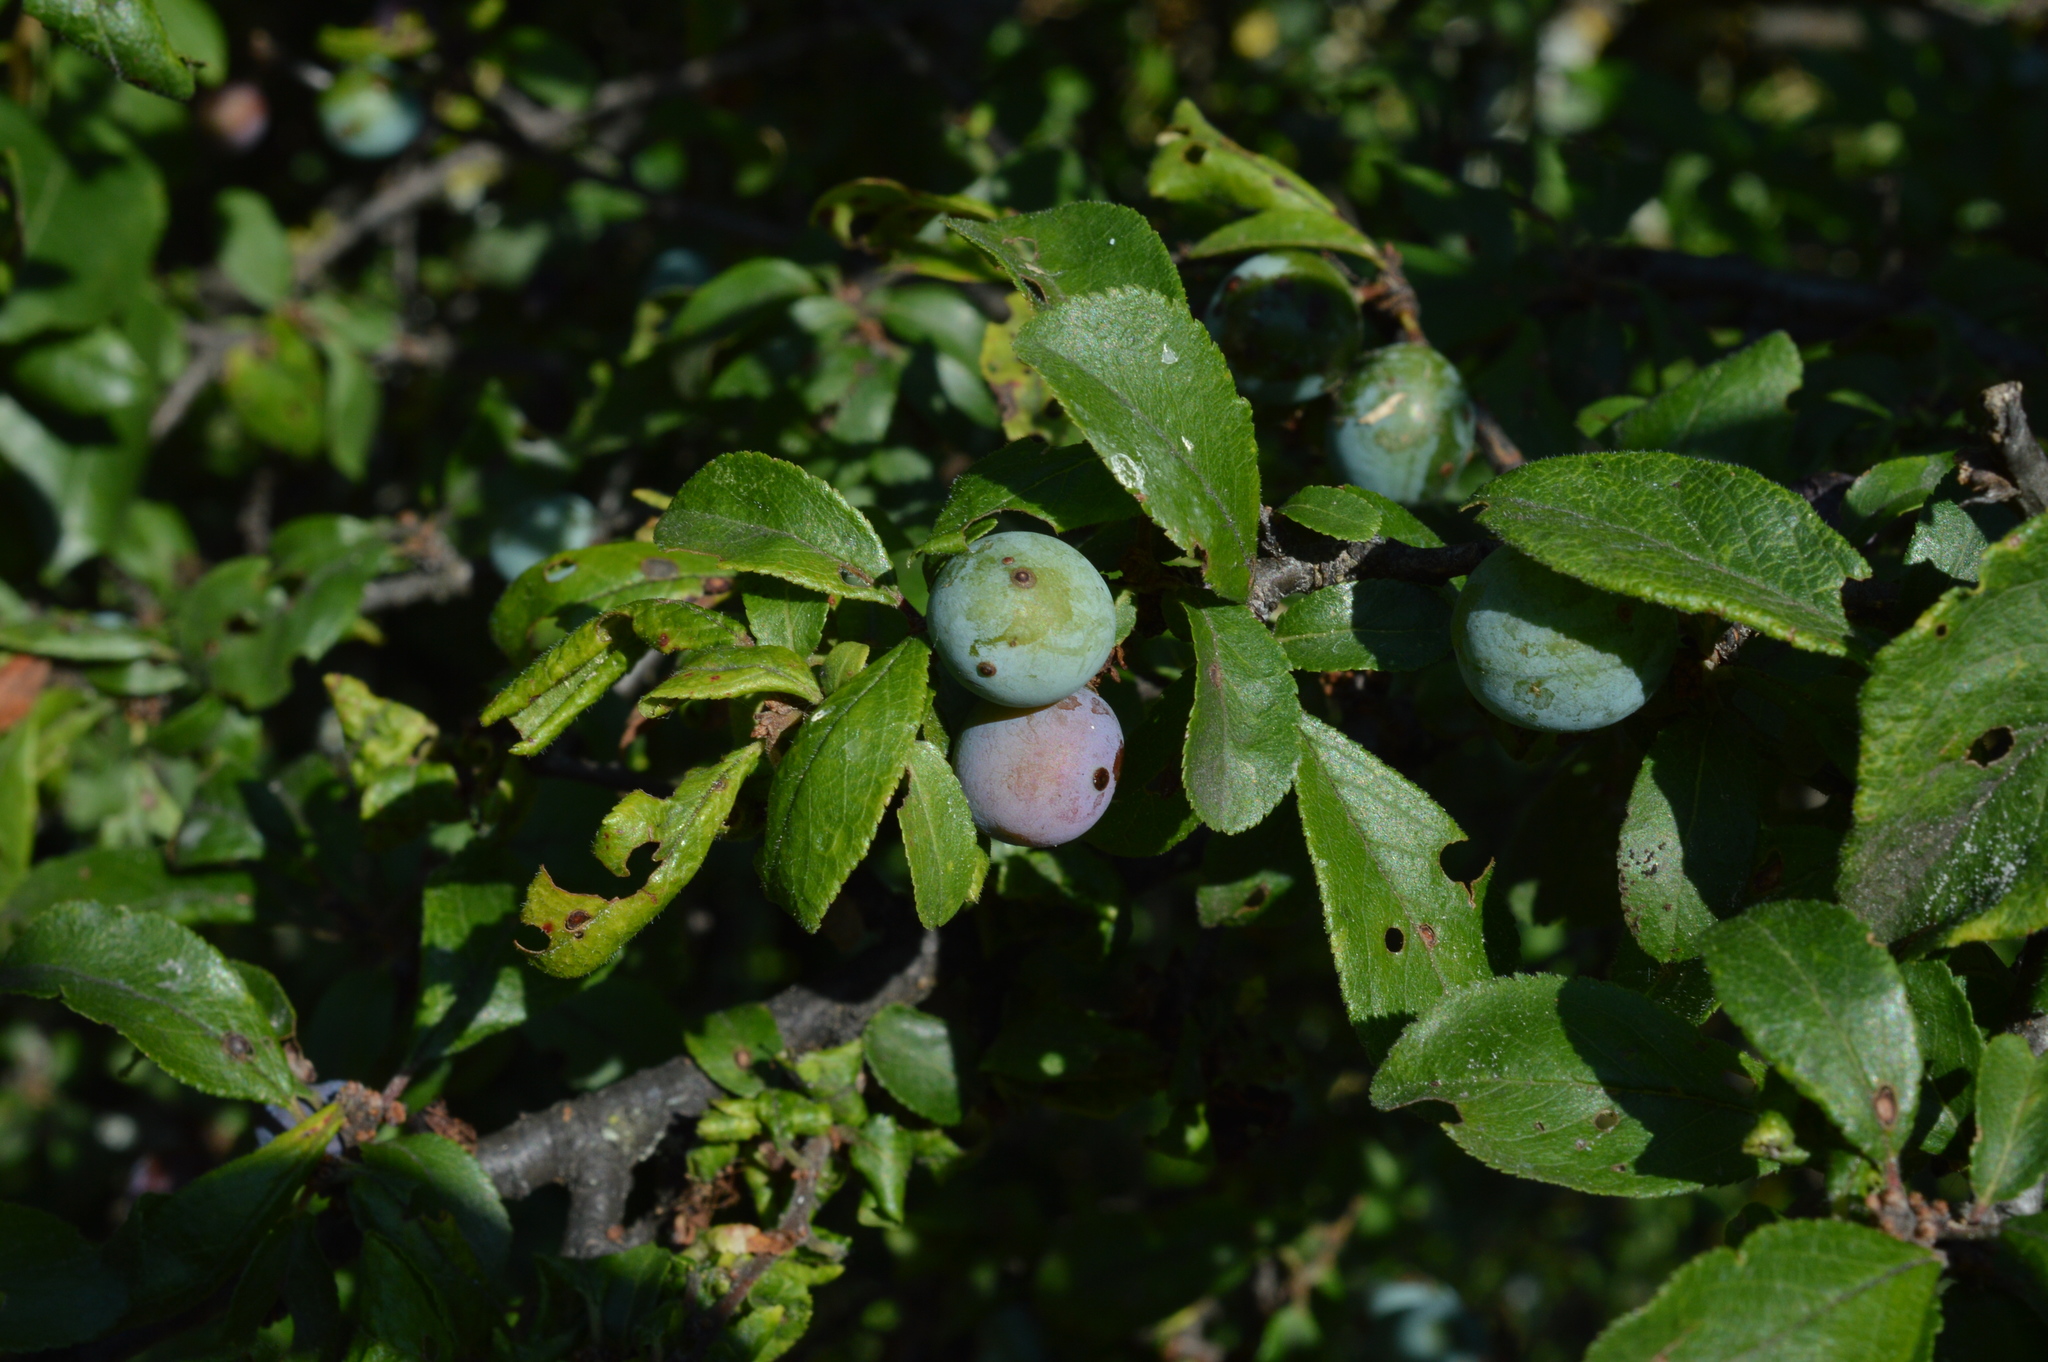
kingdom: Plantae
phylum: Tracheophyta
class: Magnoliopsida
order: Rosales
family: Rosaceae
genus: Prunus
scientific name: Prunus spinosa
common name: Blackthorn
